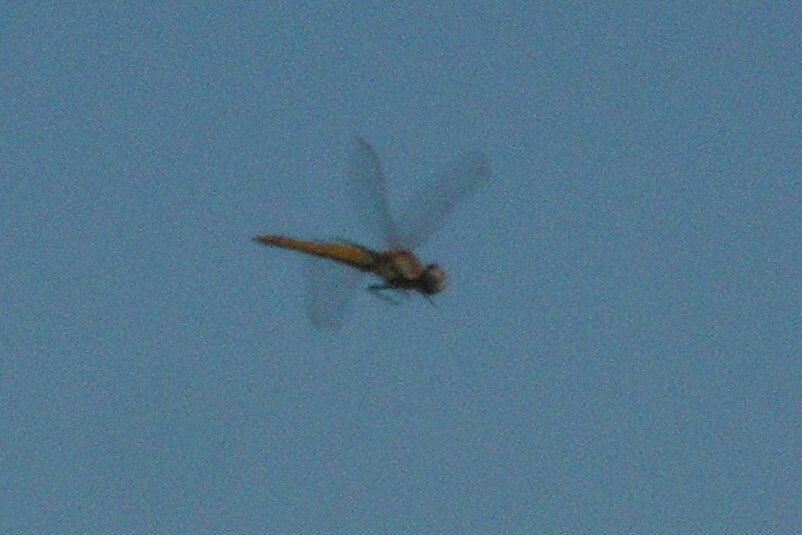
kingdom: Animalia
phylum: Arthropoda
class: Insecta
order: Odonata
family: Libellulidae
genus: Pantala
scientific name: Pantala flavescens
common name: Wandering glider
